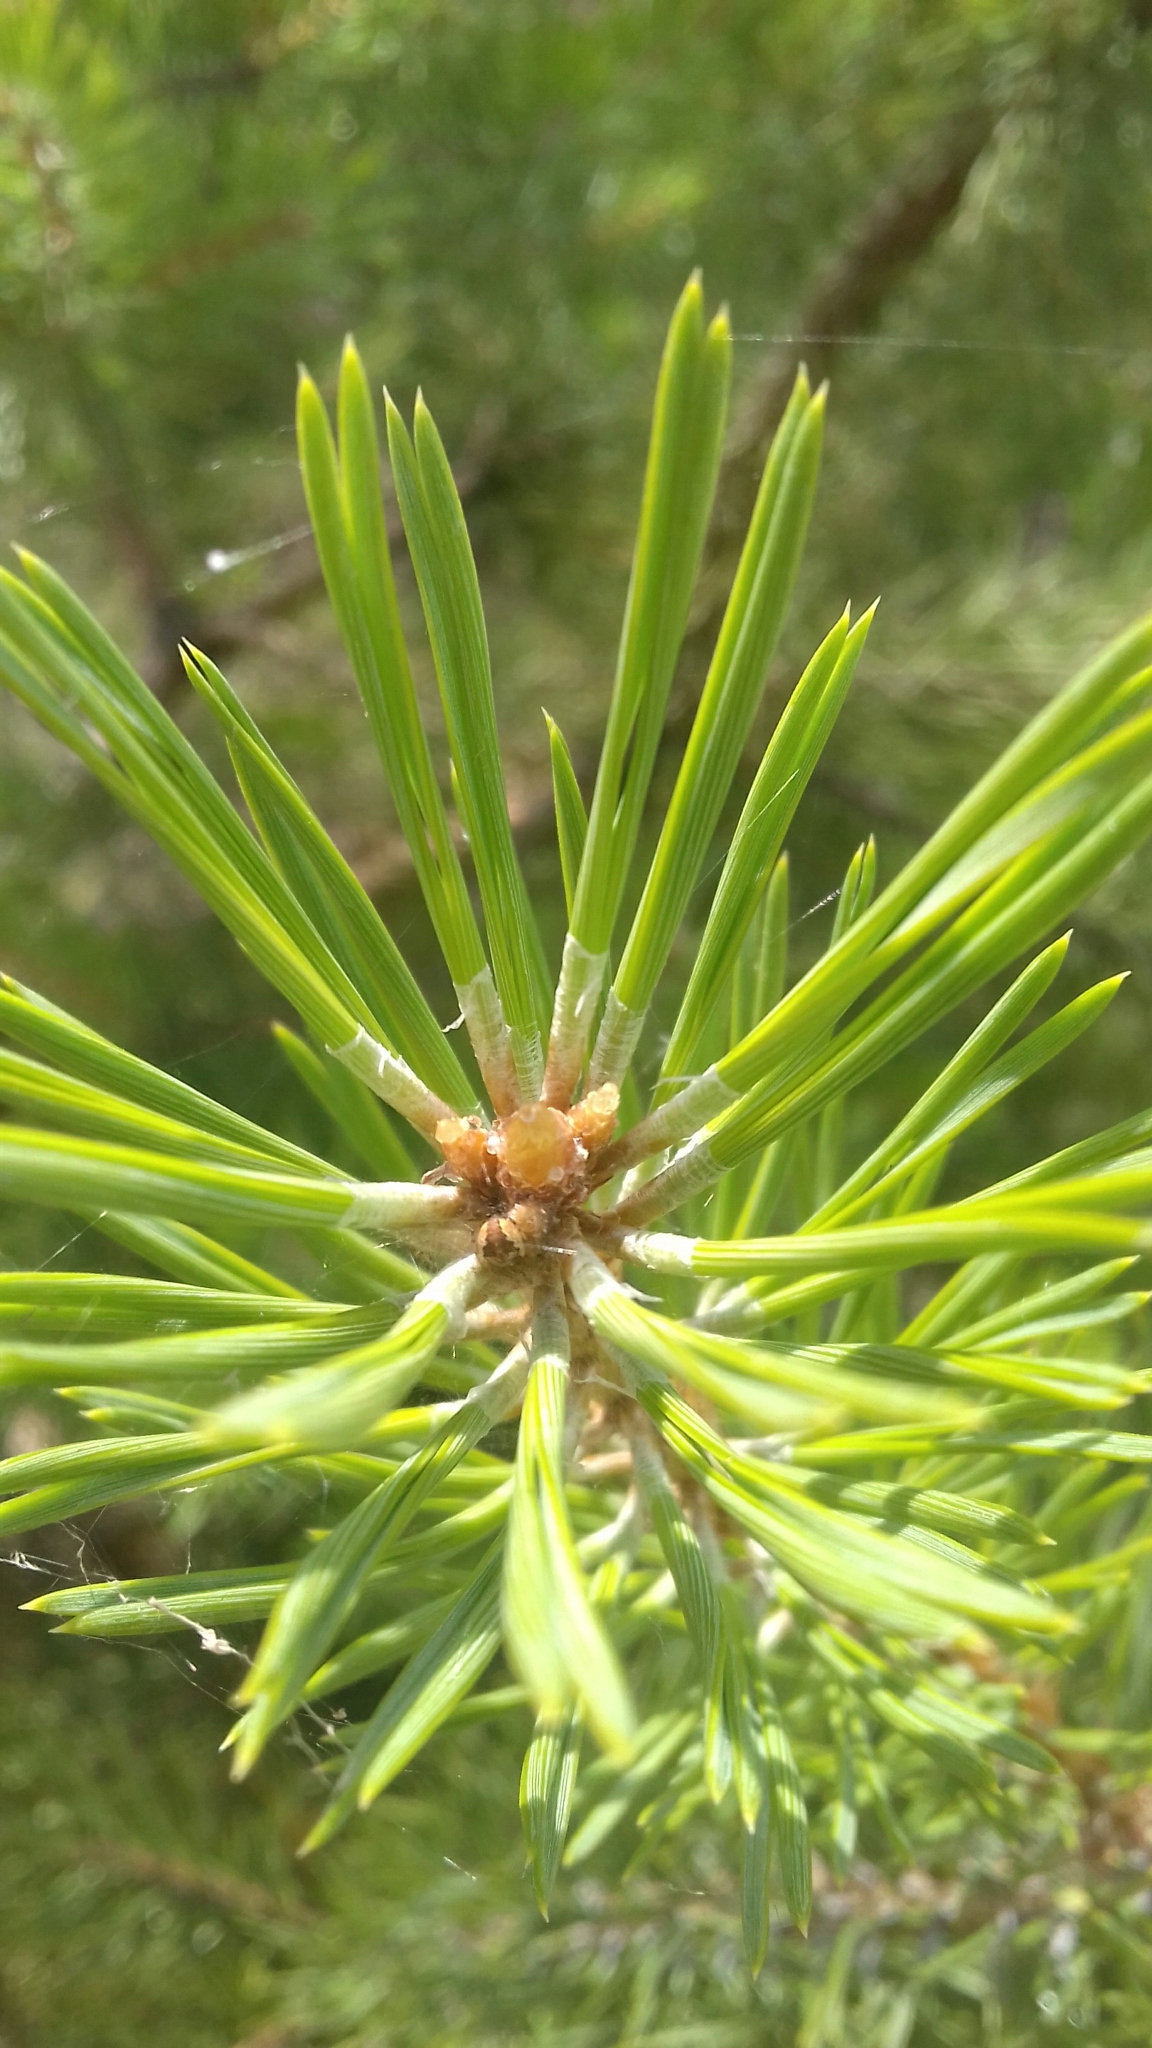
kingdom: Plantae
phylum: Tracheophyta
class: Pinopsida
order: Pinales
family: Pinaceae
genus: Pinus
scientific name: Pinus sylvestris
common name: Scots pine
